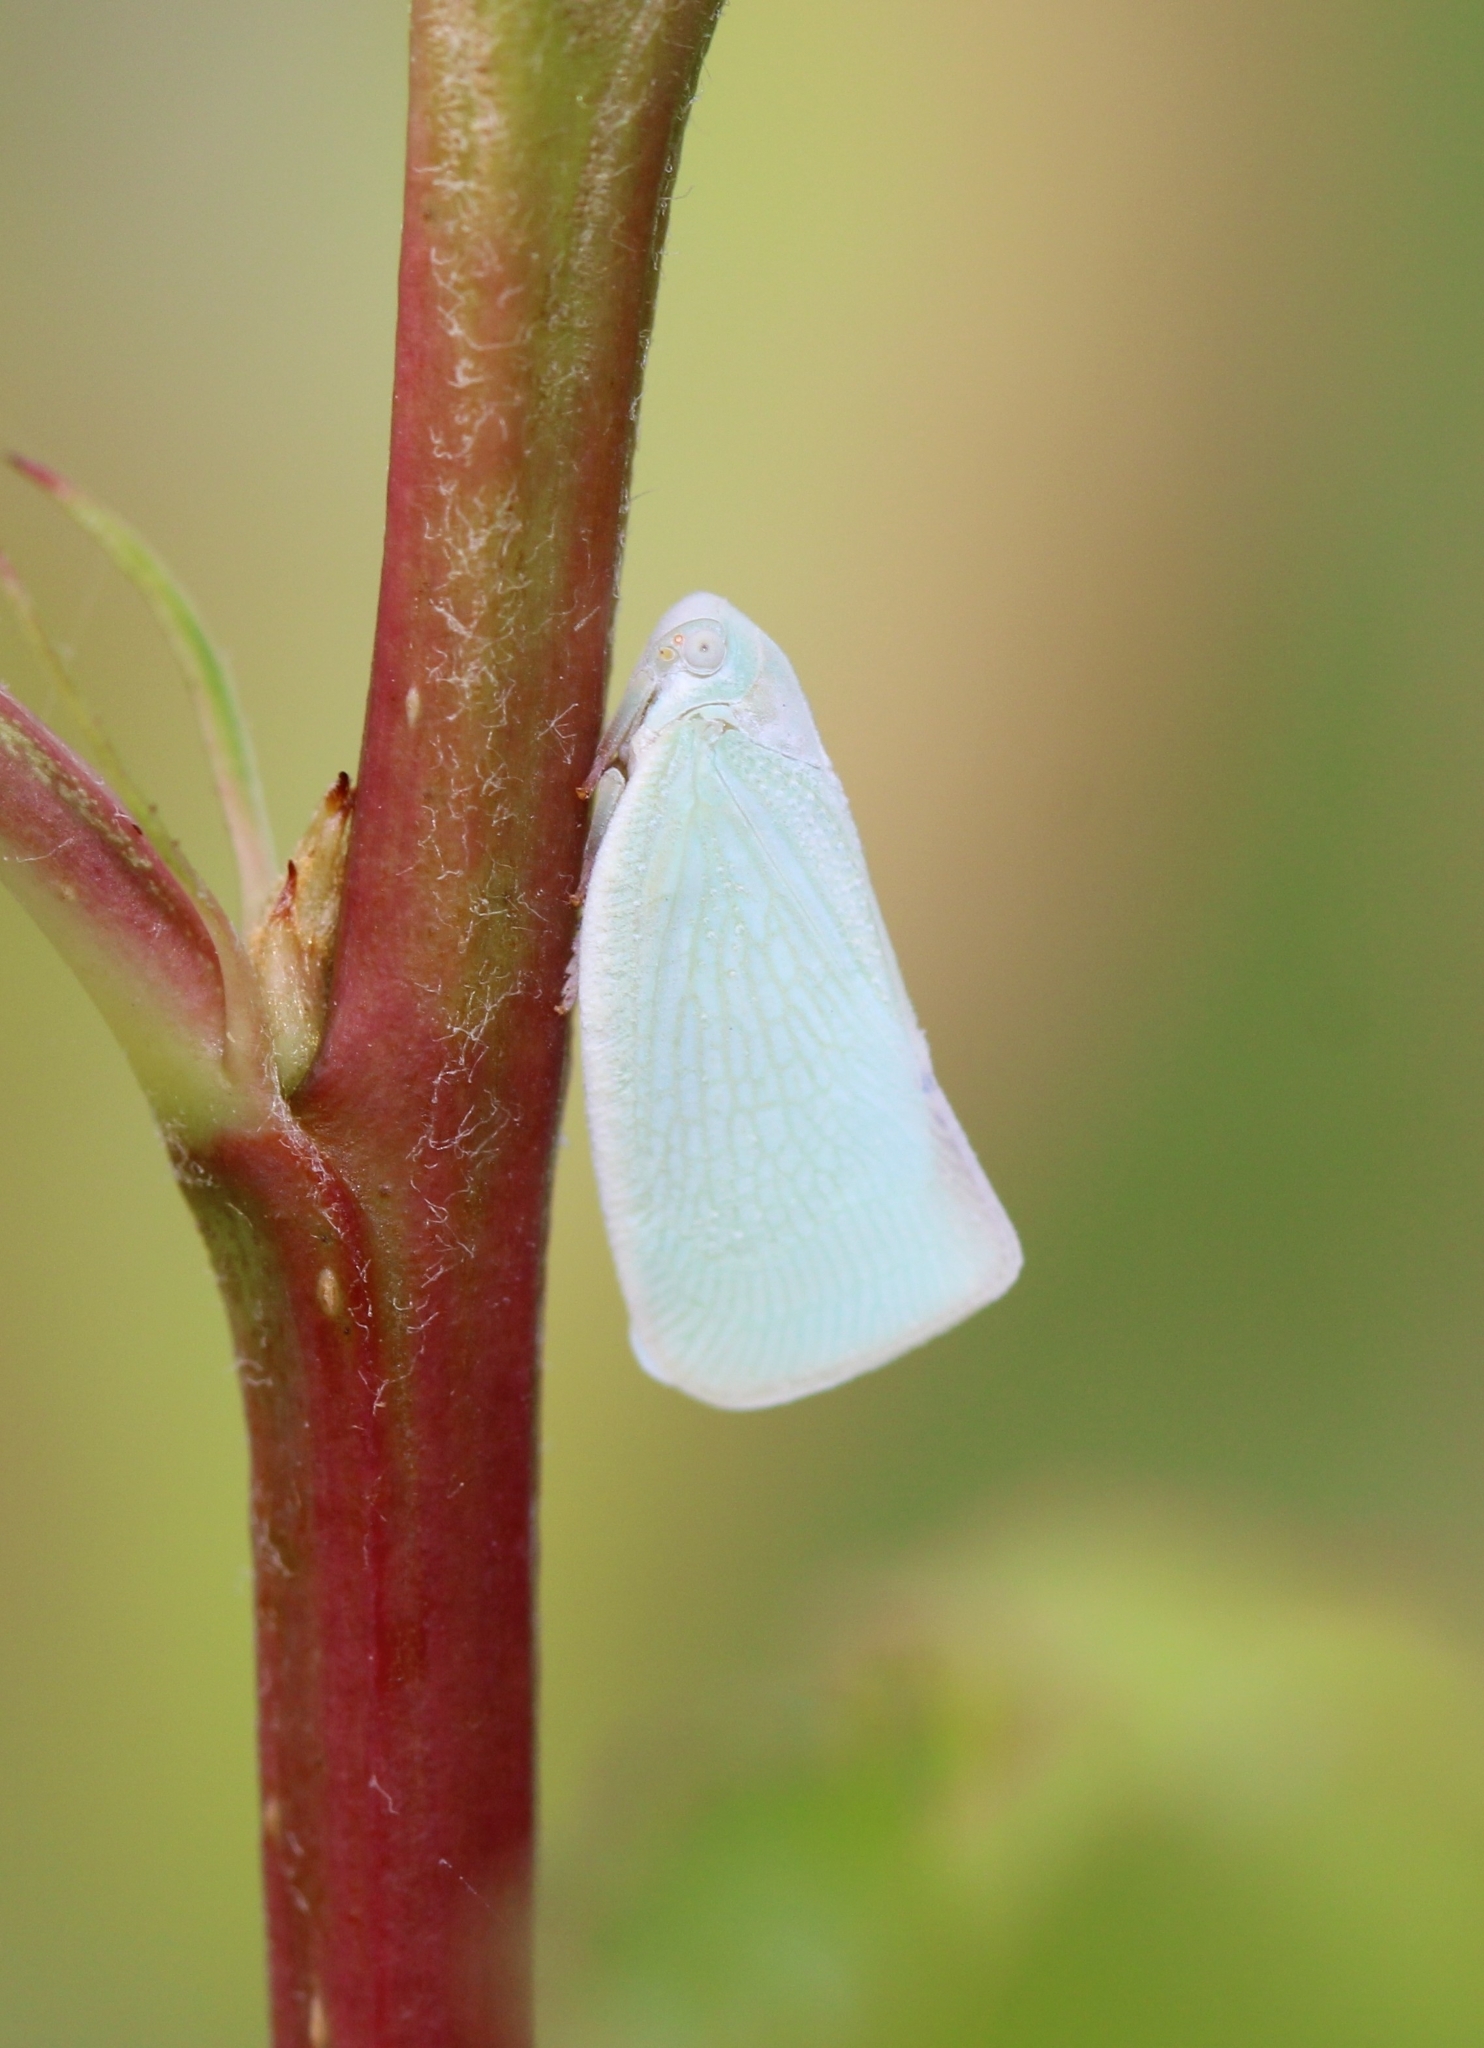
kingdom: Animalia
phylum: Arthropoda
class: Insecta
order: Hemiptera
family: Flatidae
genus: Flatormenis
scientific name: Flatormenis proxima
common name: Northern flatid planthopper
